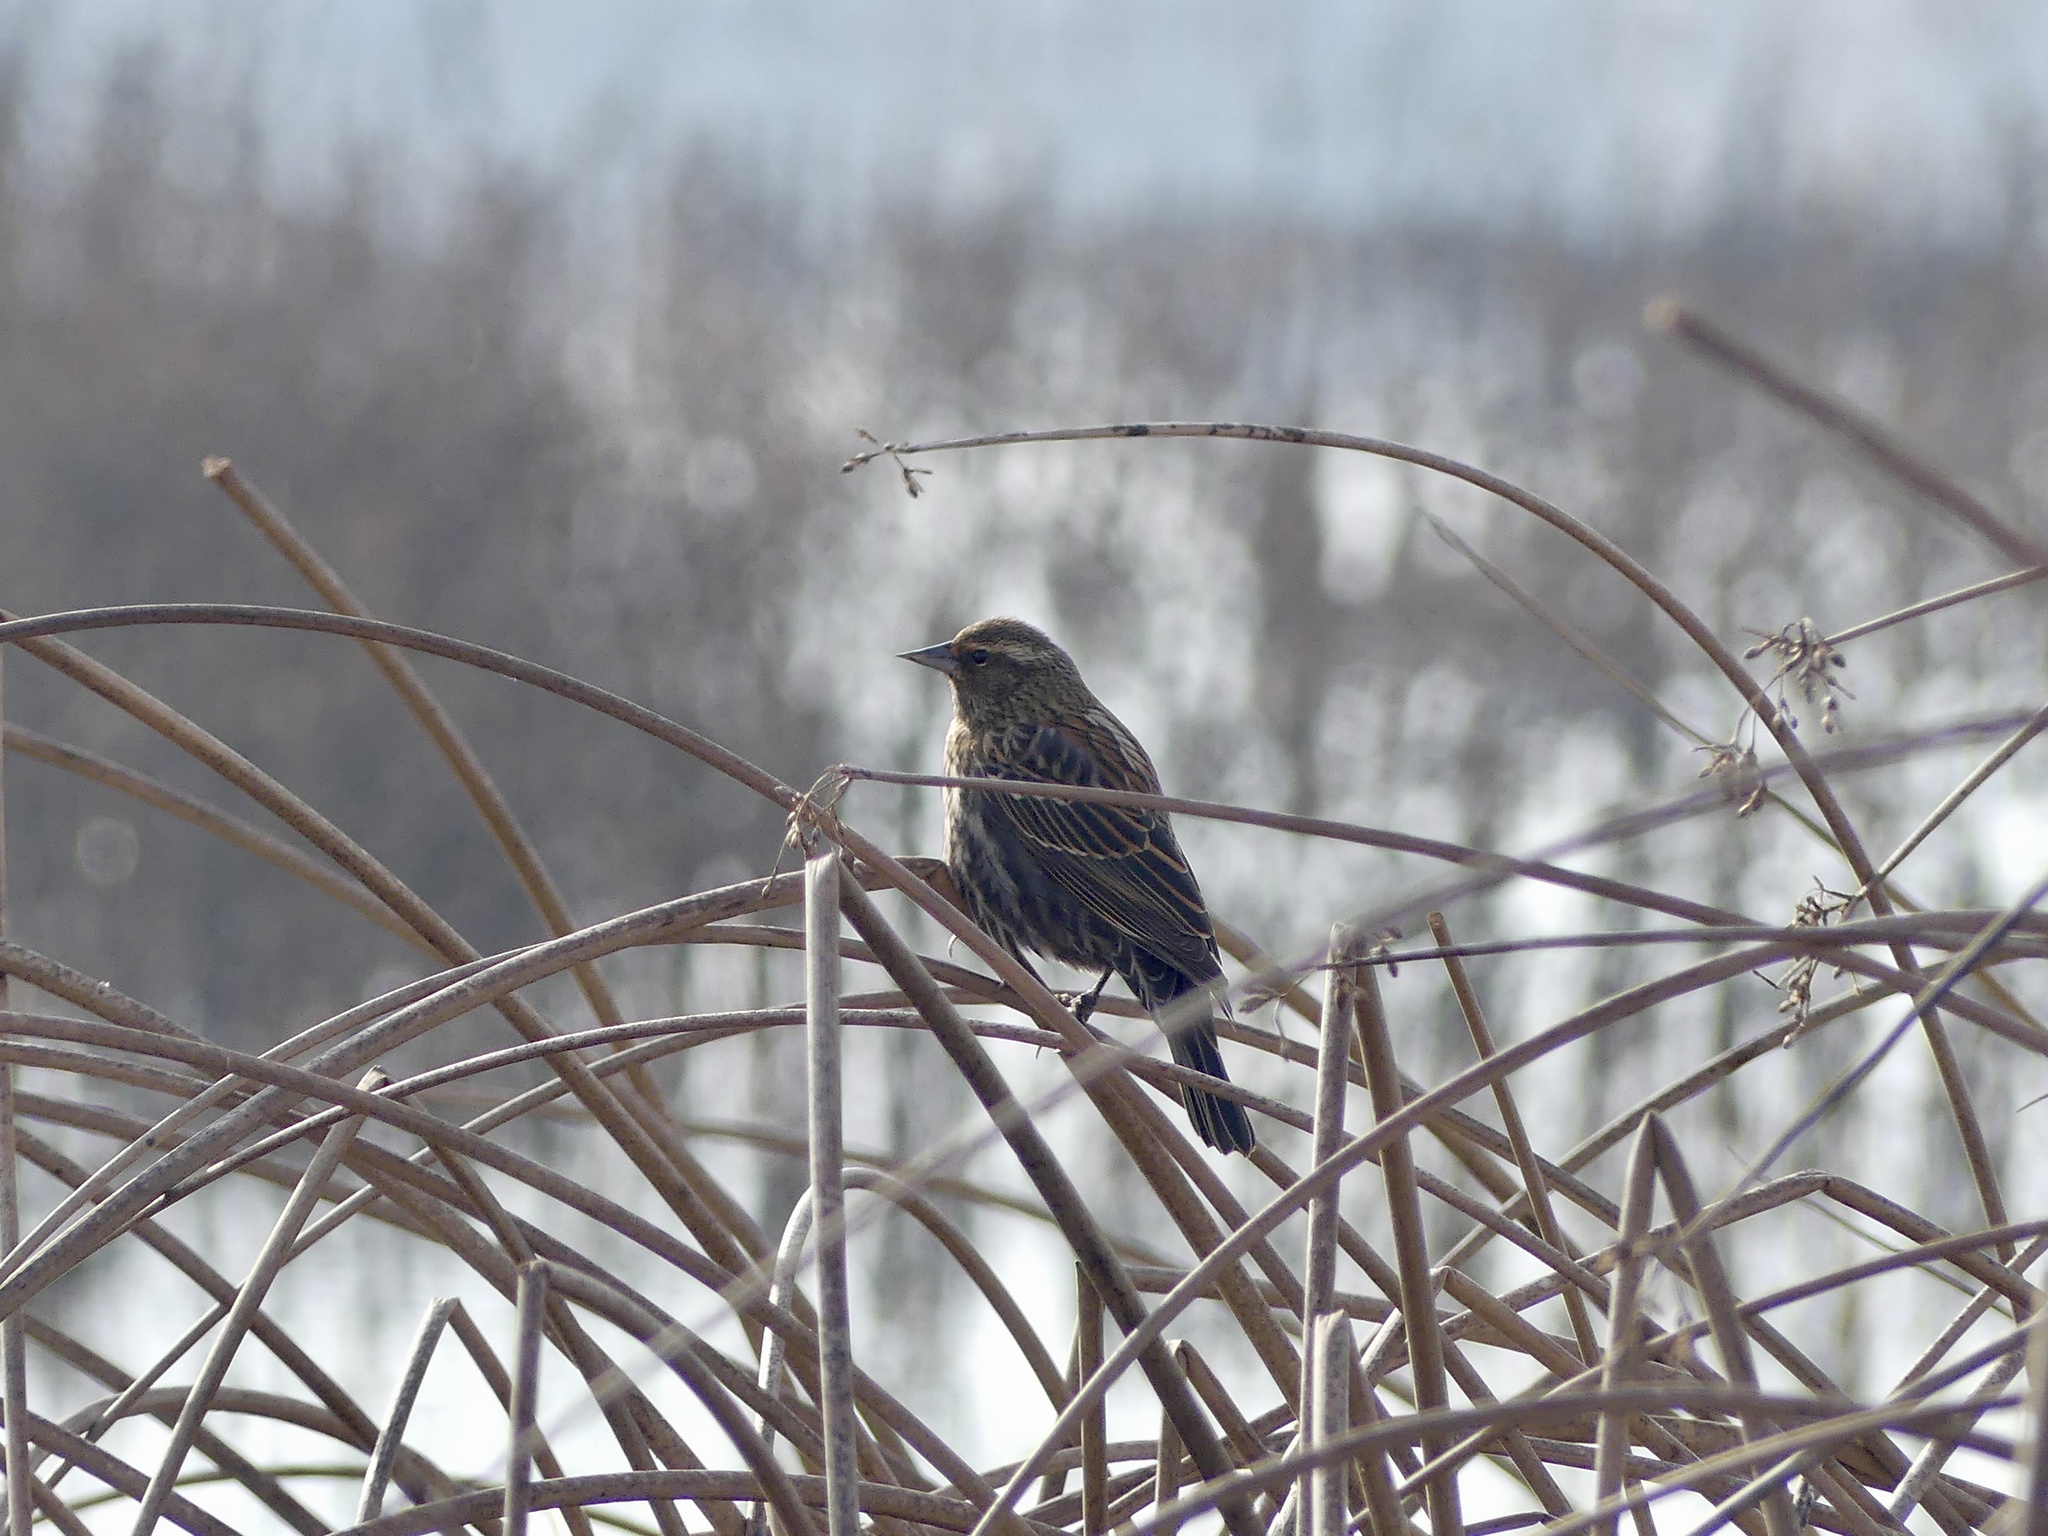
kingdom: Animalia
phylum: Chordata
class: Aves
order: Passeriformes
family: Icteridae
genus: Agelaius
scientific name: Agelaius phoeniceus
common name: Red-winged blackbird
